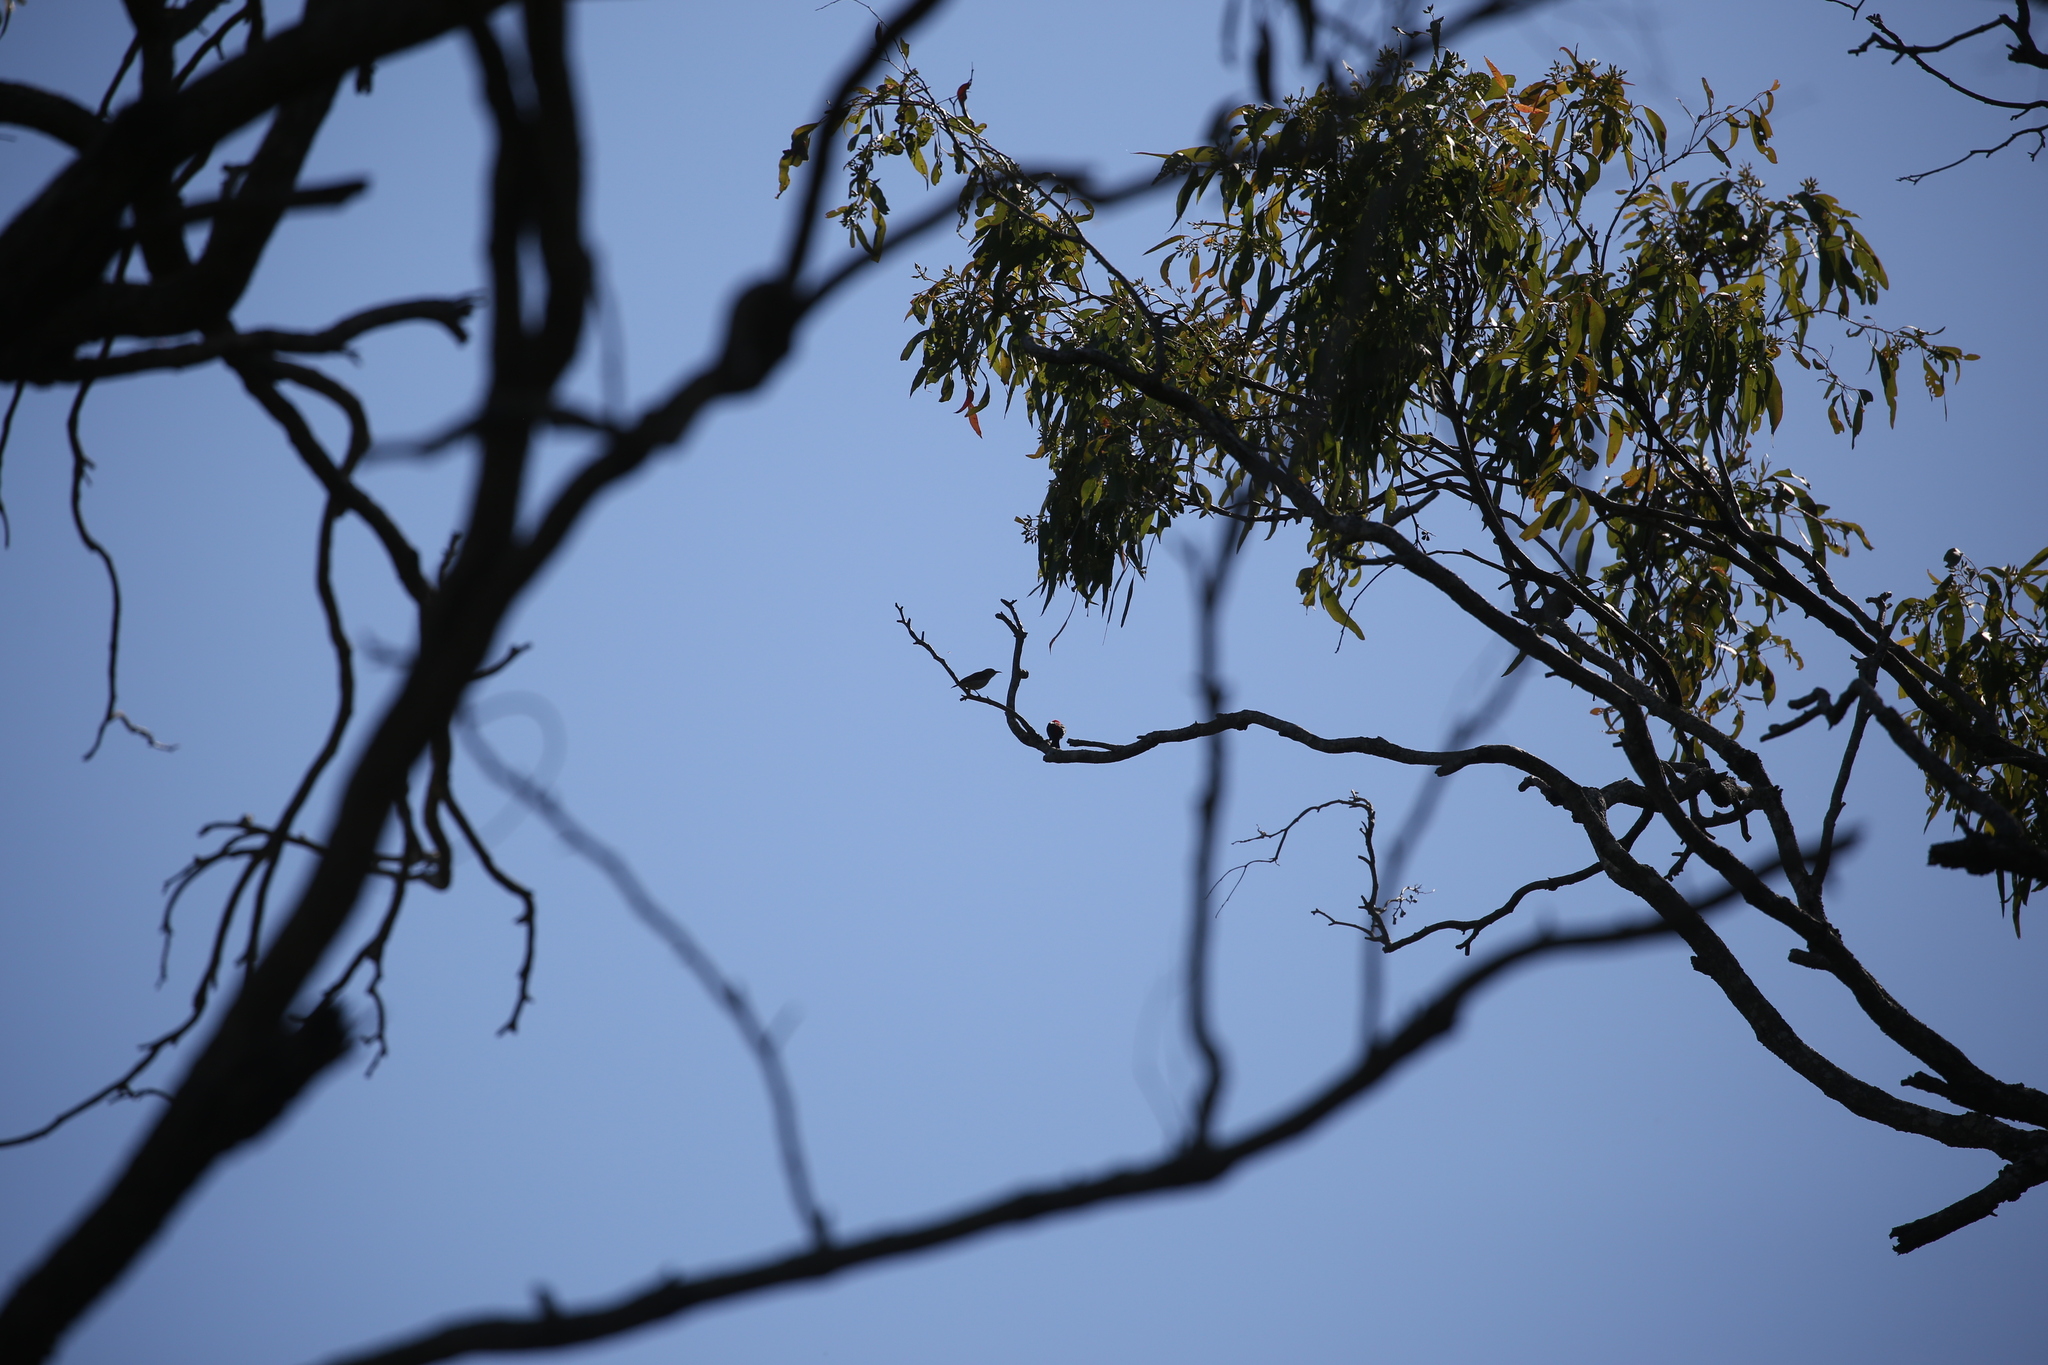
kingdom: Animalia
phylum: Chordata
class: Aves
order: Passeriformes
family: Meliphagidae
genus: Myzomela
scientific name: Myzomela sanguinolenta
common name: Scarlet myzomela
